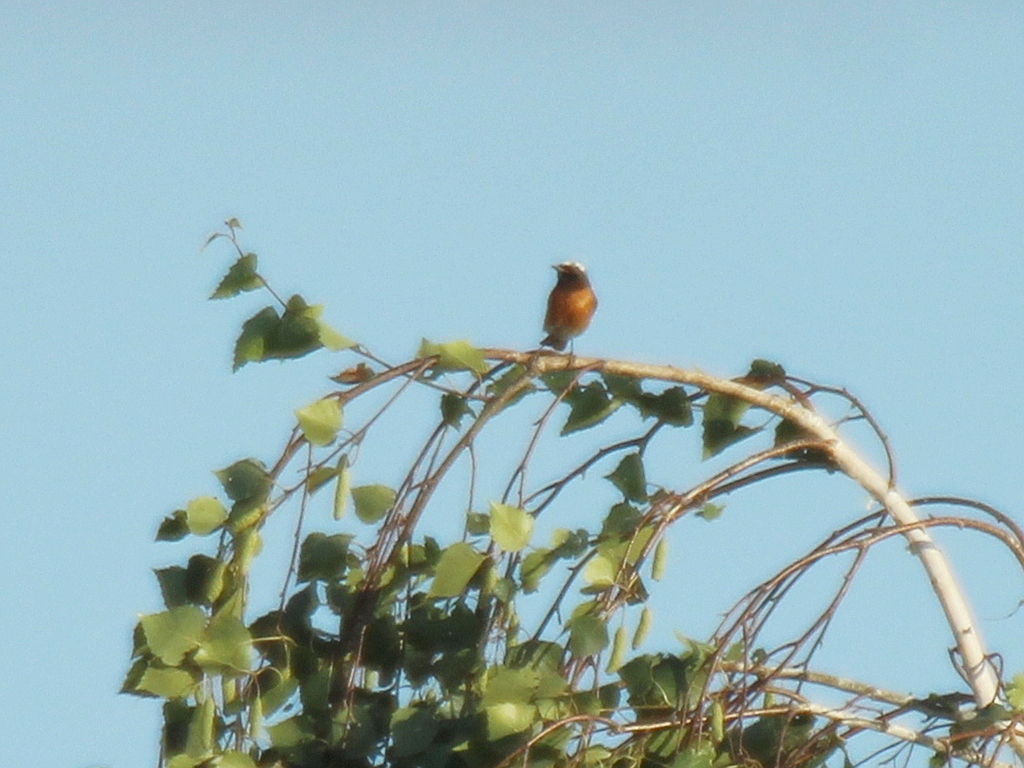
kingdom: Animalia
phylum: Chordata
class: Aves
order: Passeriformes
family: Muscicapidae
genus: Phoenicurus
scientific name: Phoenicurus phoenicurus
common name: Common redstart
